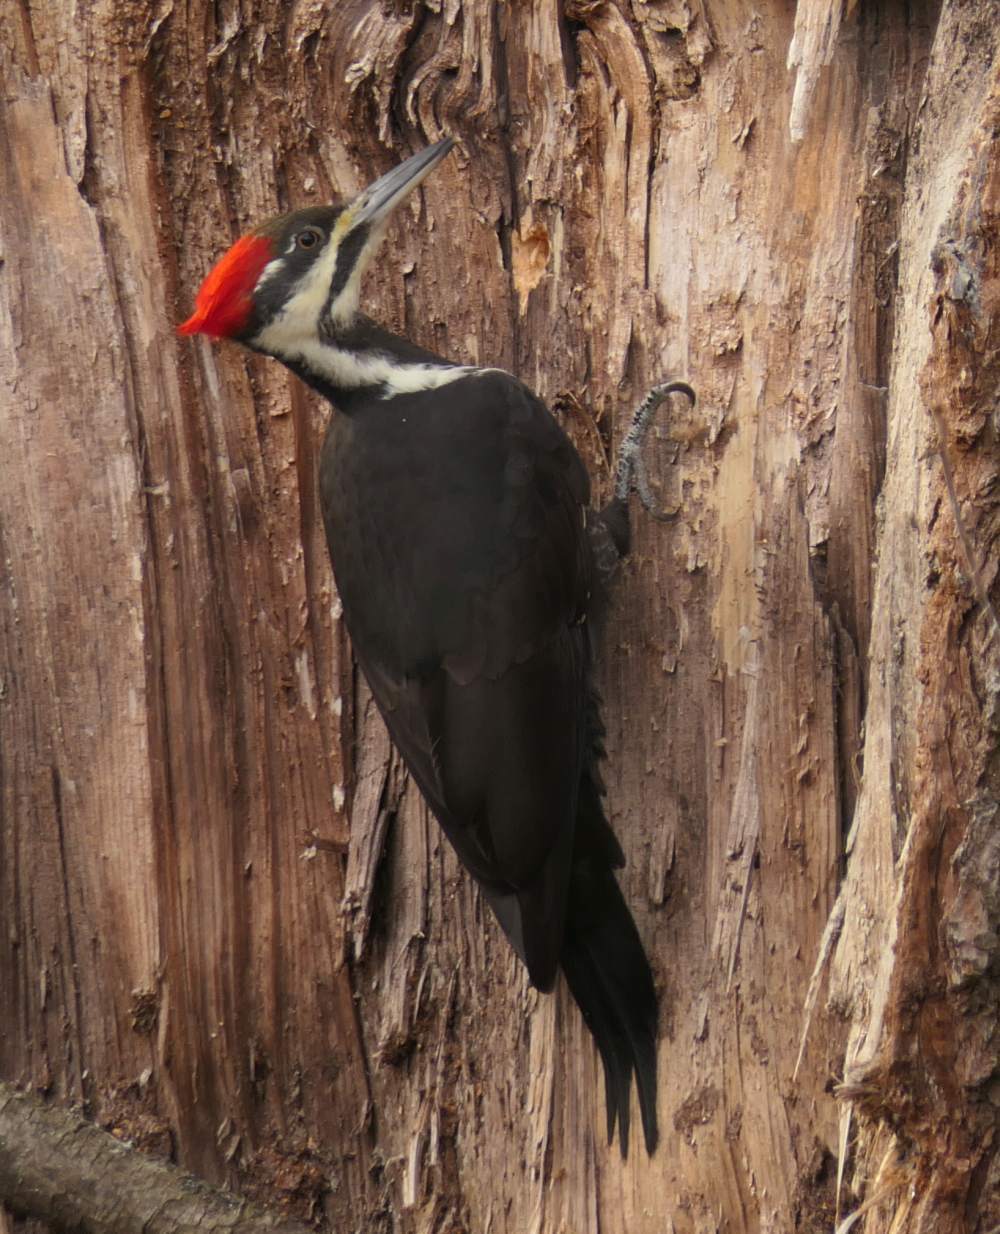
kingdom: Animalia
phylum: Chordata
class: Aves
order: Piciformes
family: Picidae
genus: Dryocopus
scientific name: Dryocopus pileatus
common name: Pileated woodpecker
